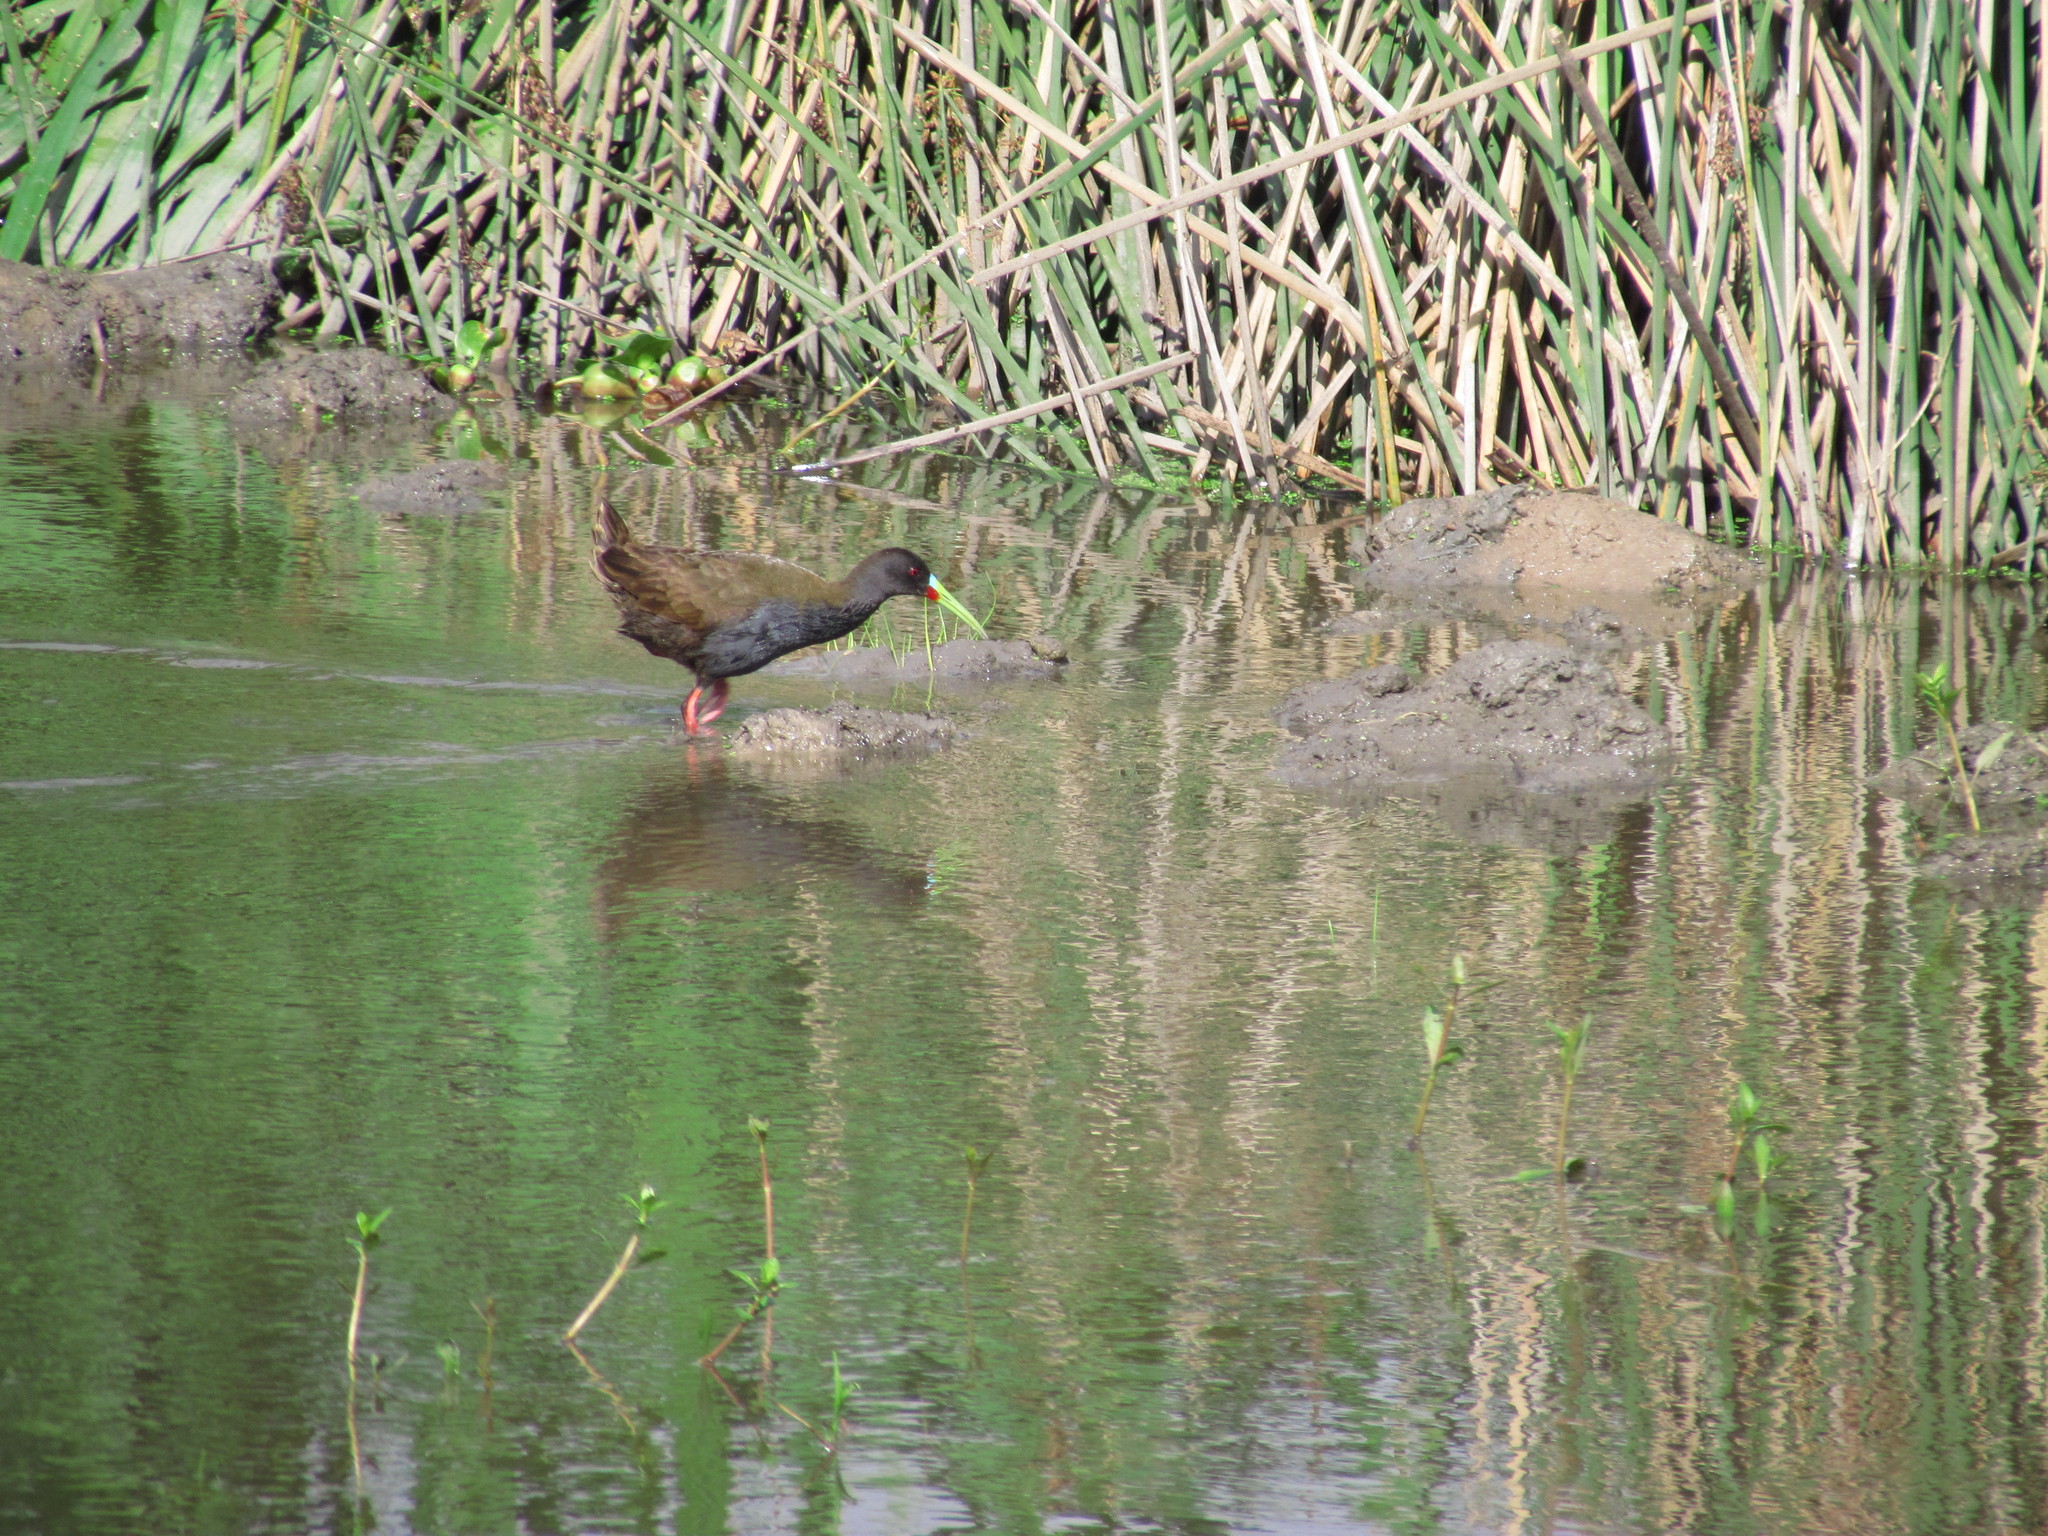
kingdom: Animalia
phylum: Chordata
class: Aves
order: Gruiformes
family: Rallidae
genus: Pardirallus
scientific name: Pardirallus sanguinolentus
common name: Plumbeous rail
